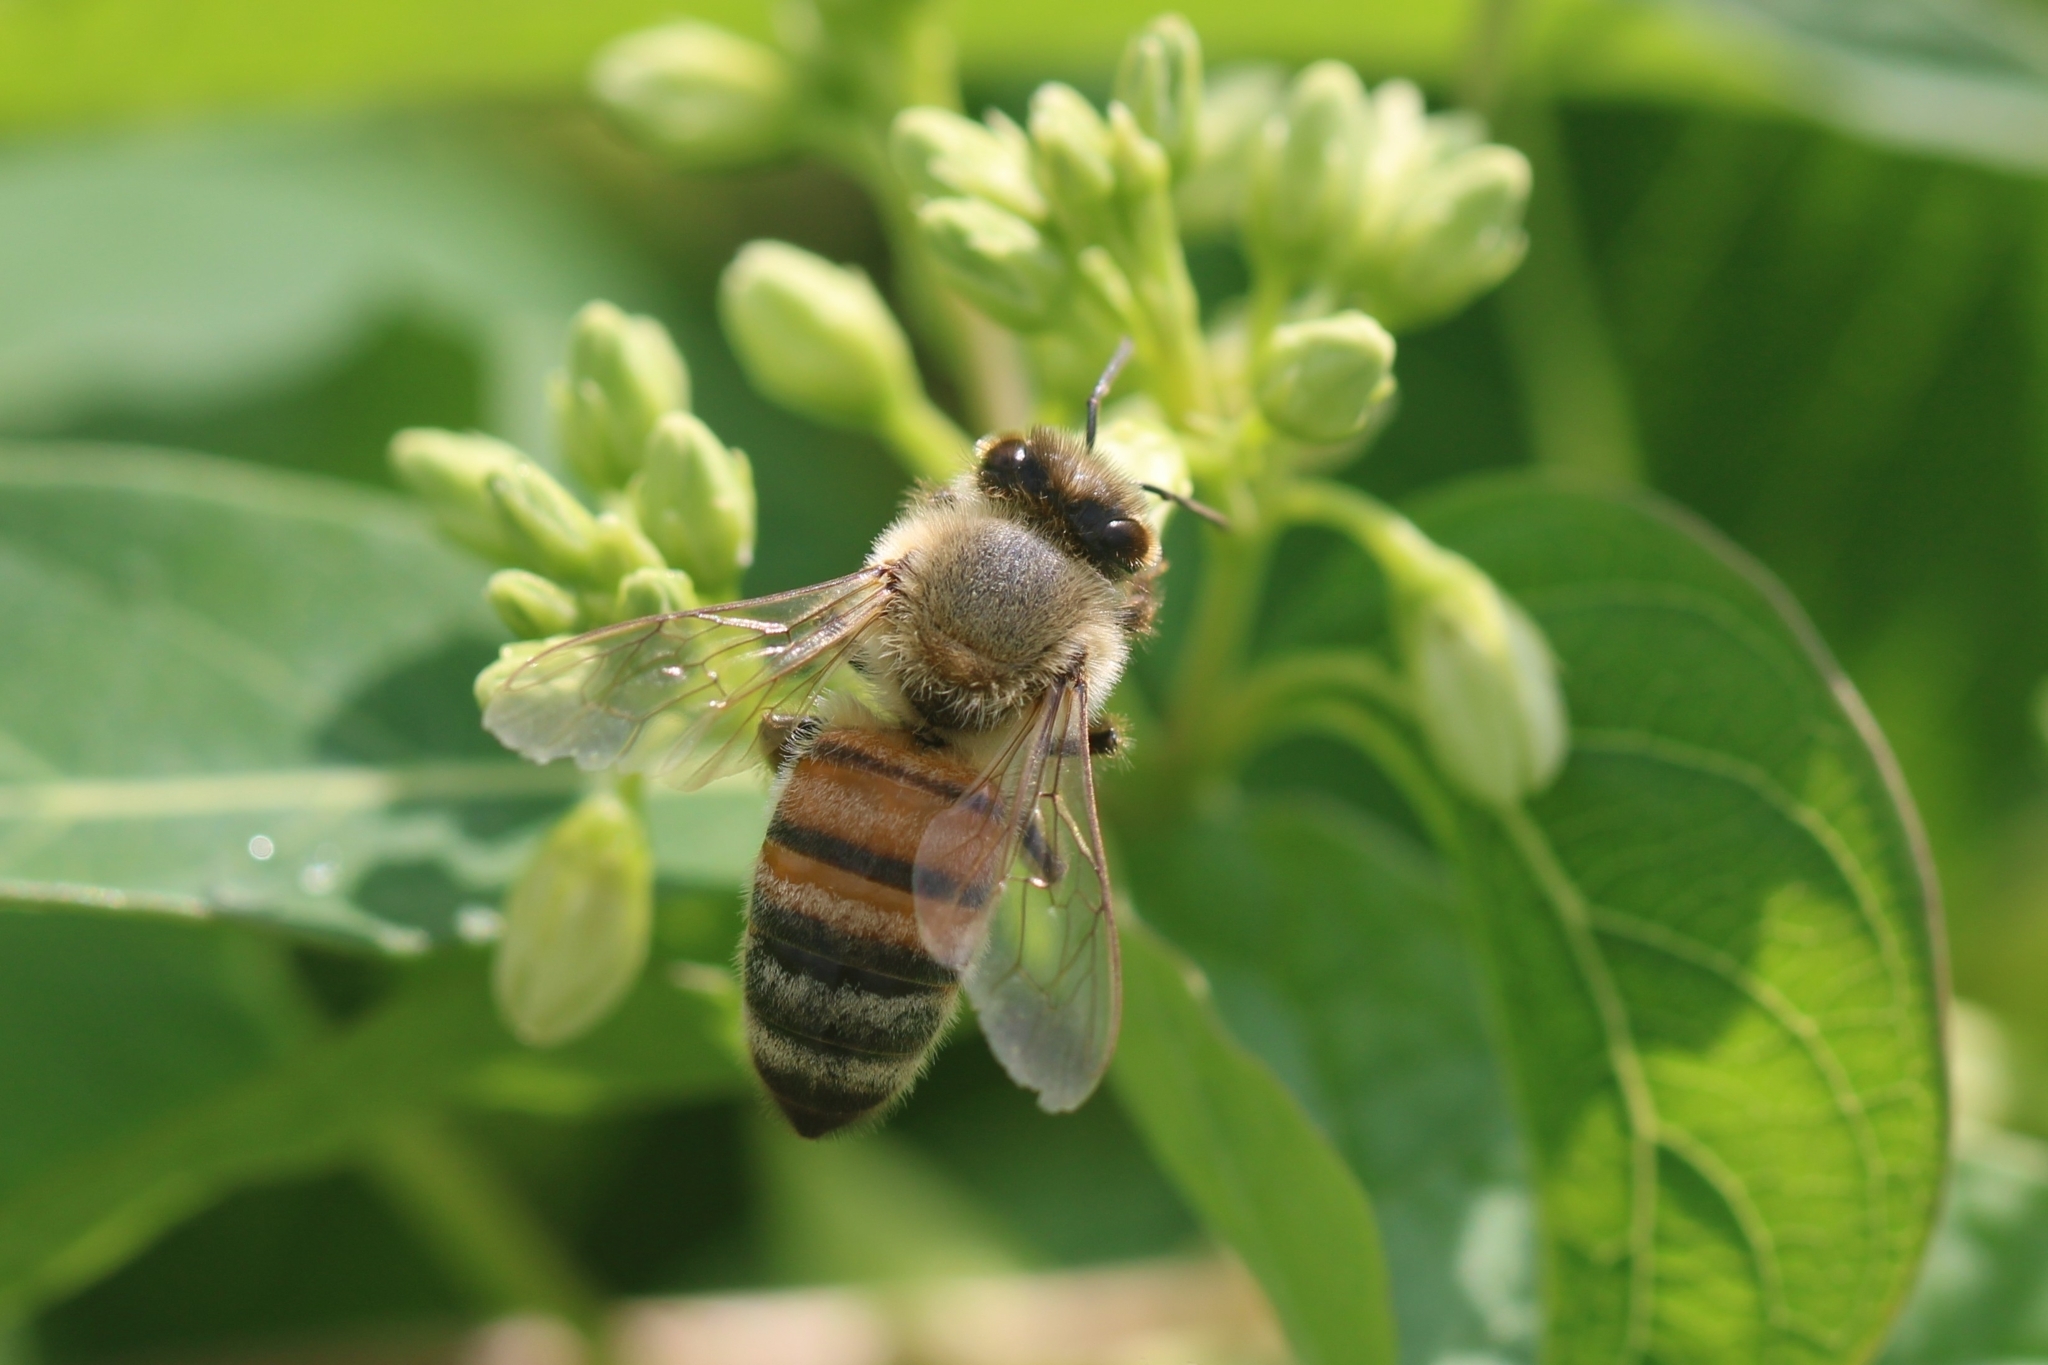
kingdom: Animalia
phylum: Arthropoda
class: Insecta
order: Hymenoptera
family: Apidae
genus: Apis
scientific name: Apis mellifera
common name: Honey bee
